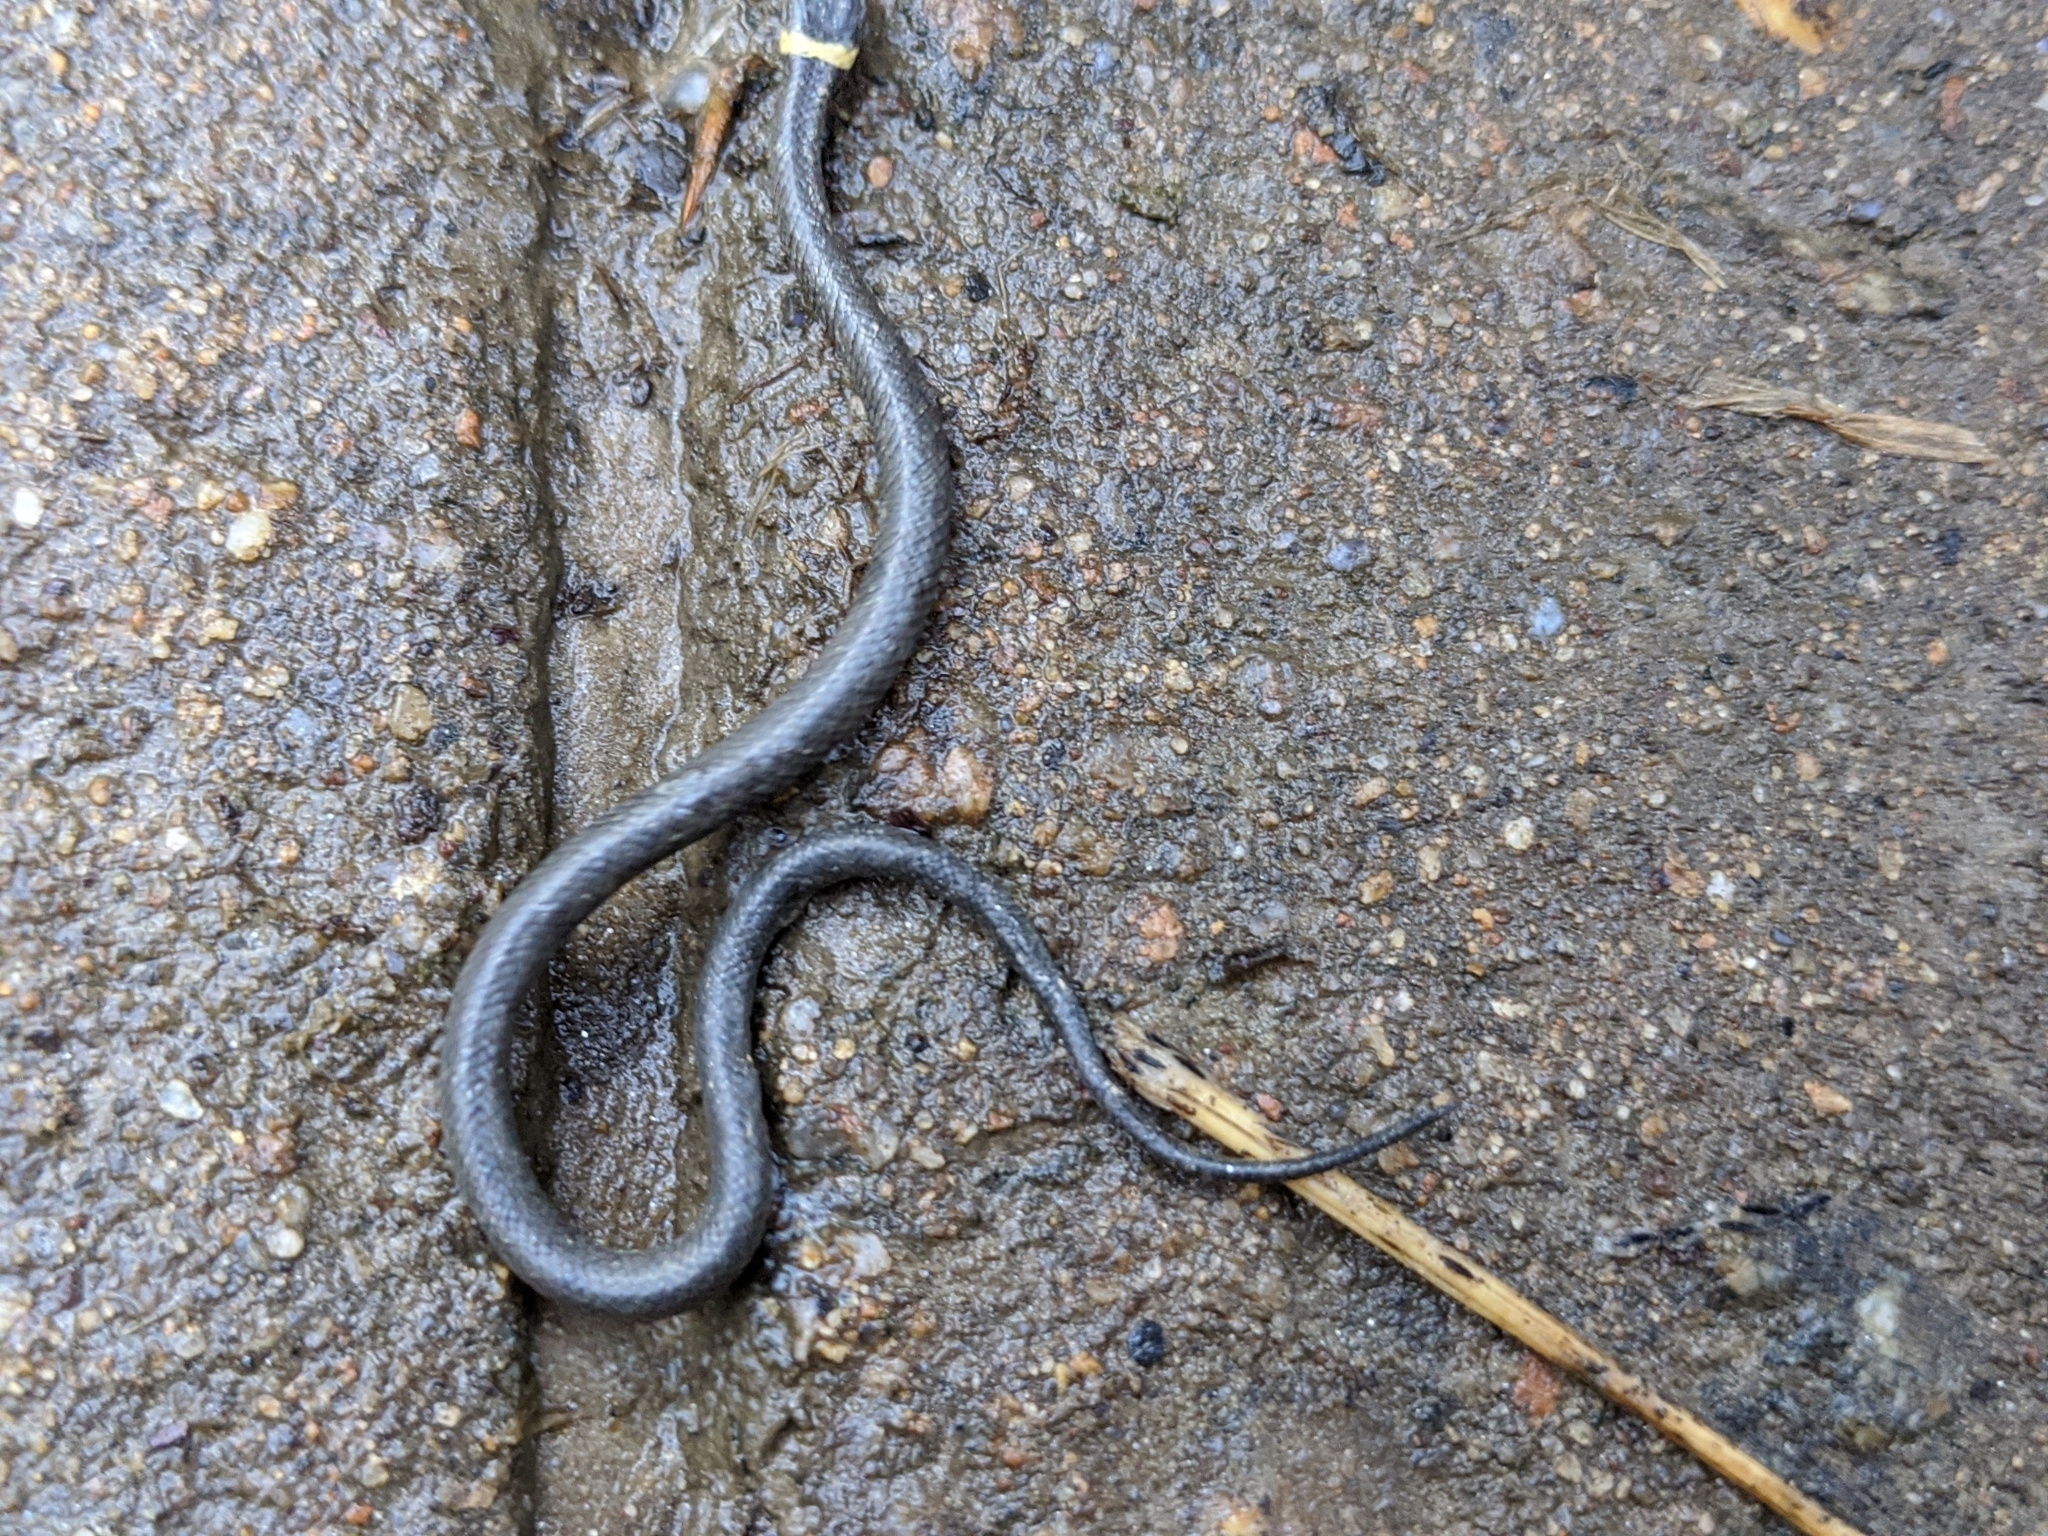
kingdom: Animalia
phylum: Chordata
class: Squamata
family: Colubridae
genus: Diadophis
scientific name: Diadophis punctatus
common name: Ringneck snake
